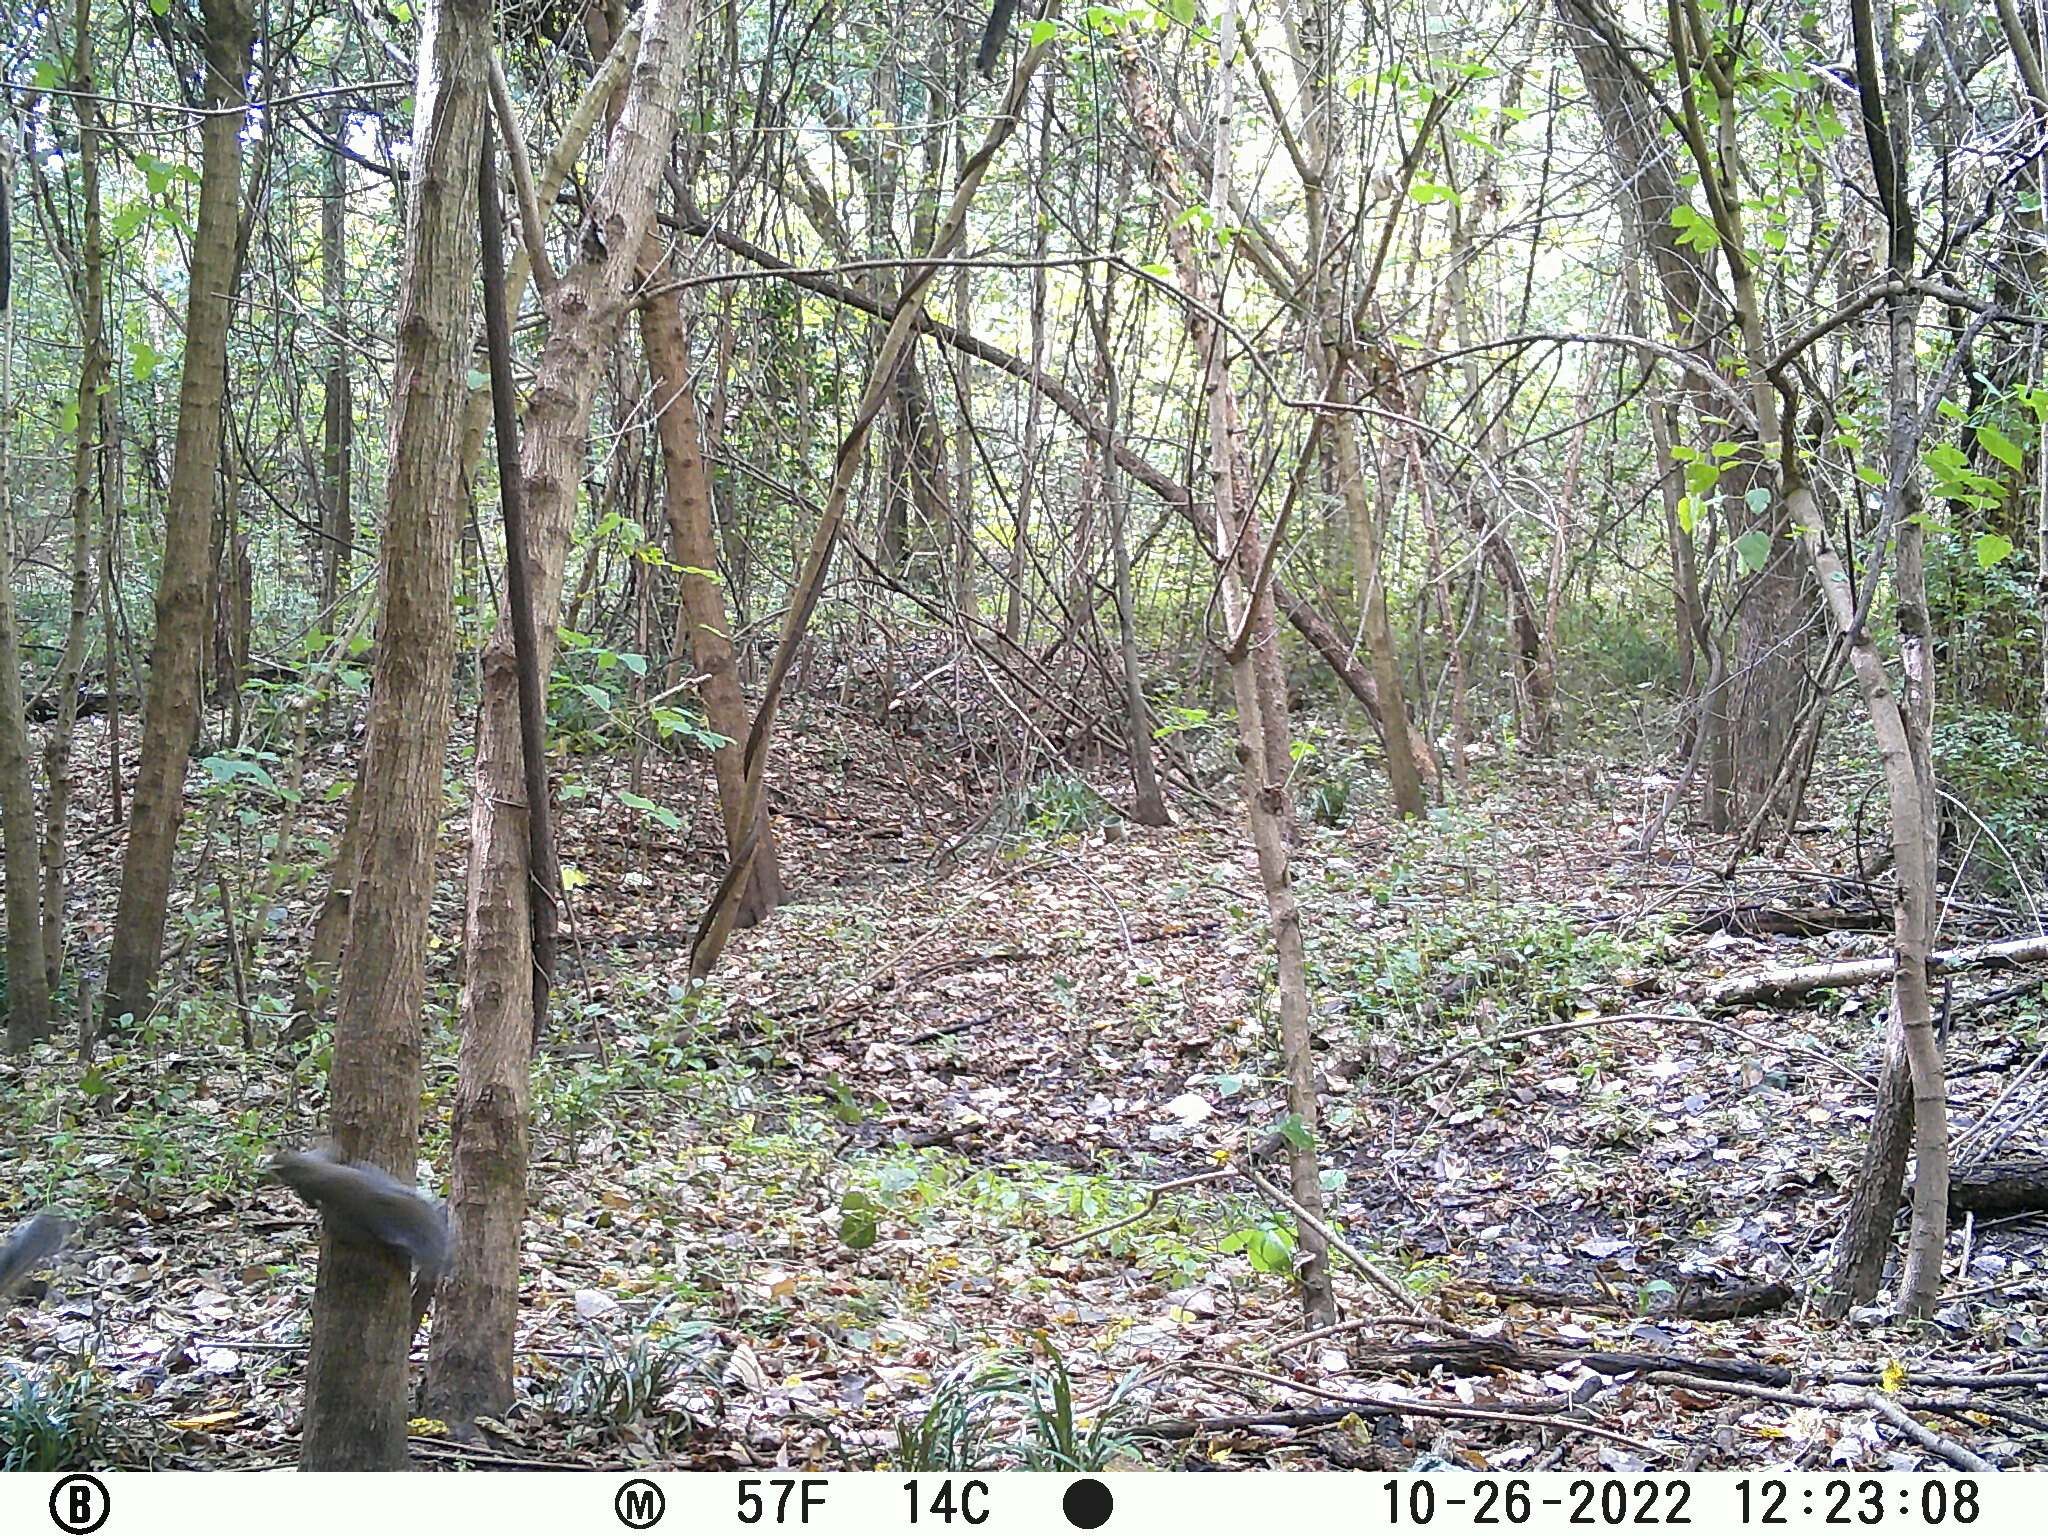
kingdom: Animalia
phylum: Chordata
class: Mammalia
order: Rodentia
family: Sciuridae
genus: Sciurus
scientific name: Sciurus carolinensis
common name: Eastern gray squirrel
